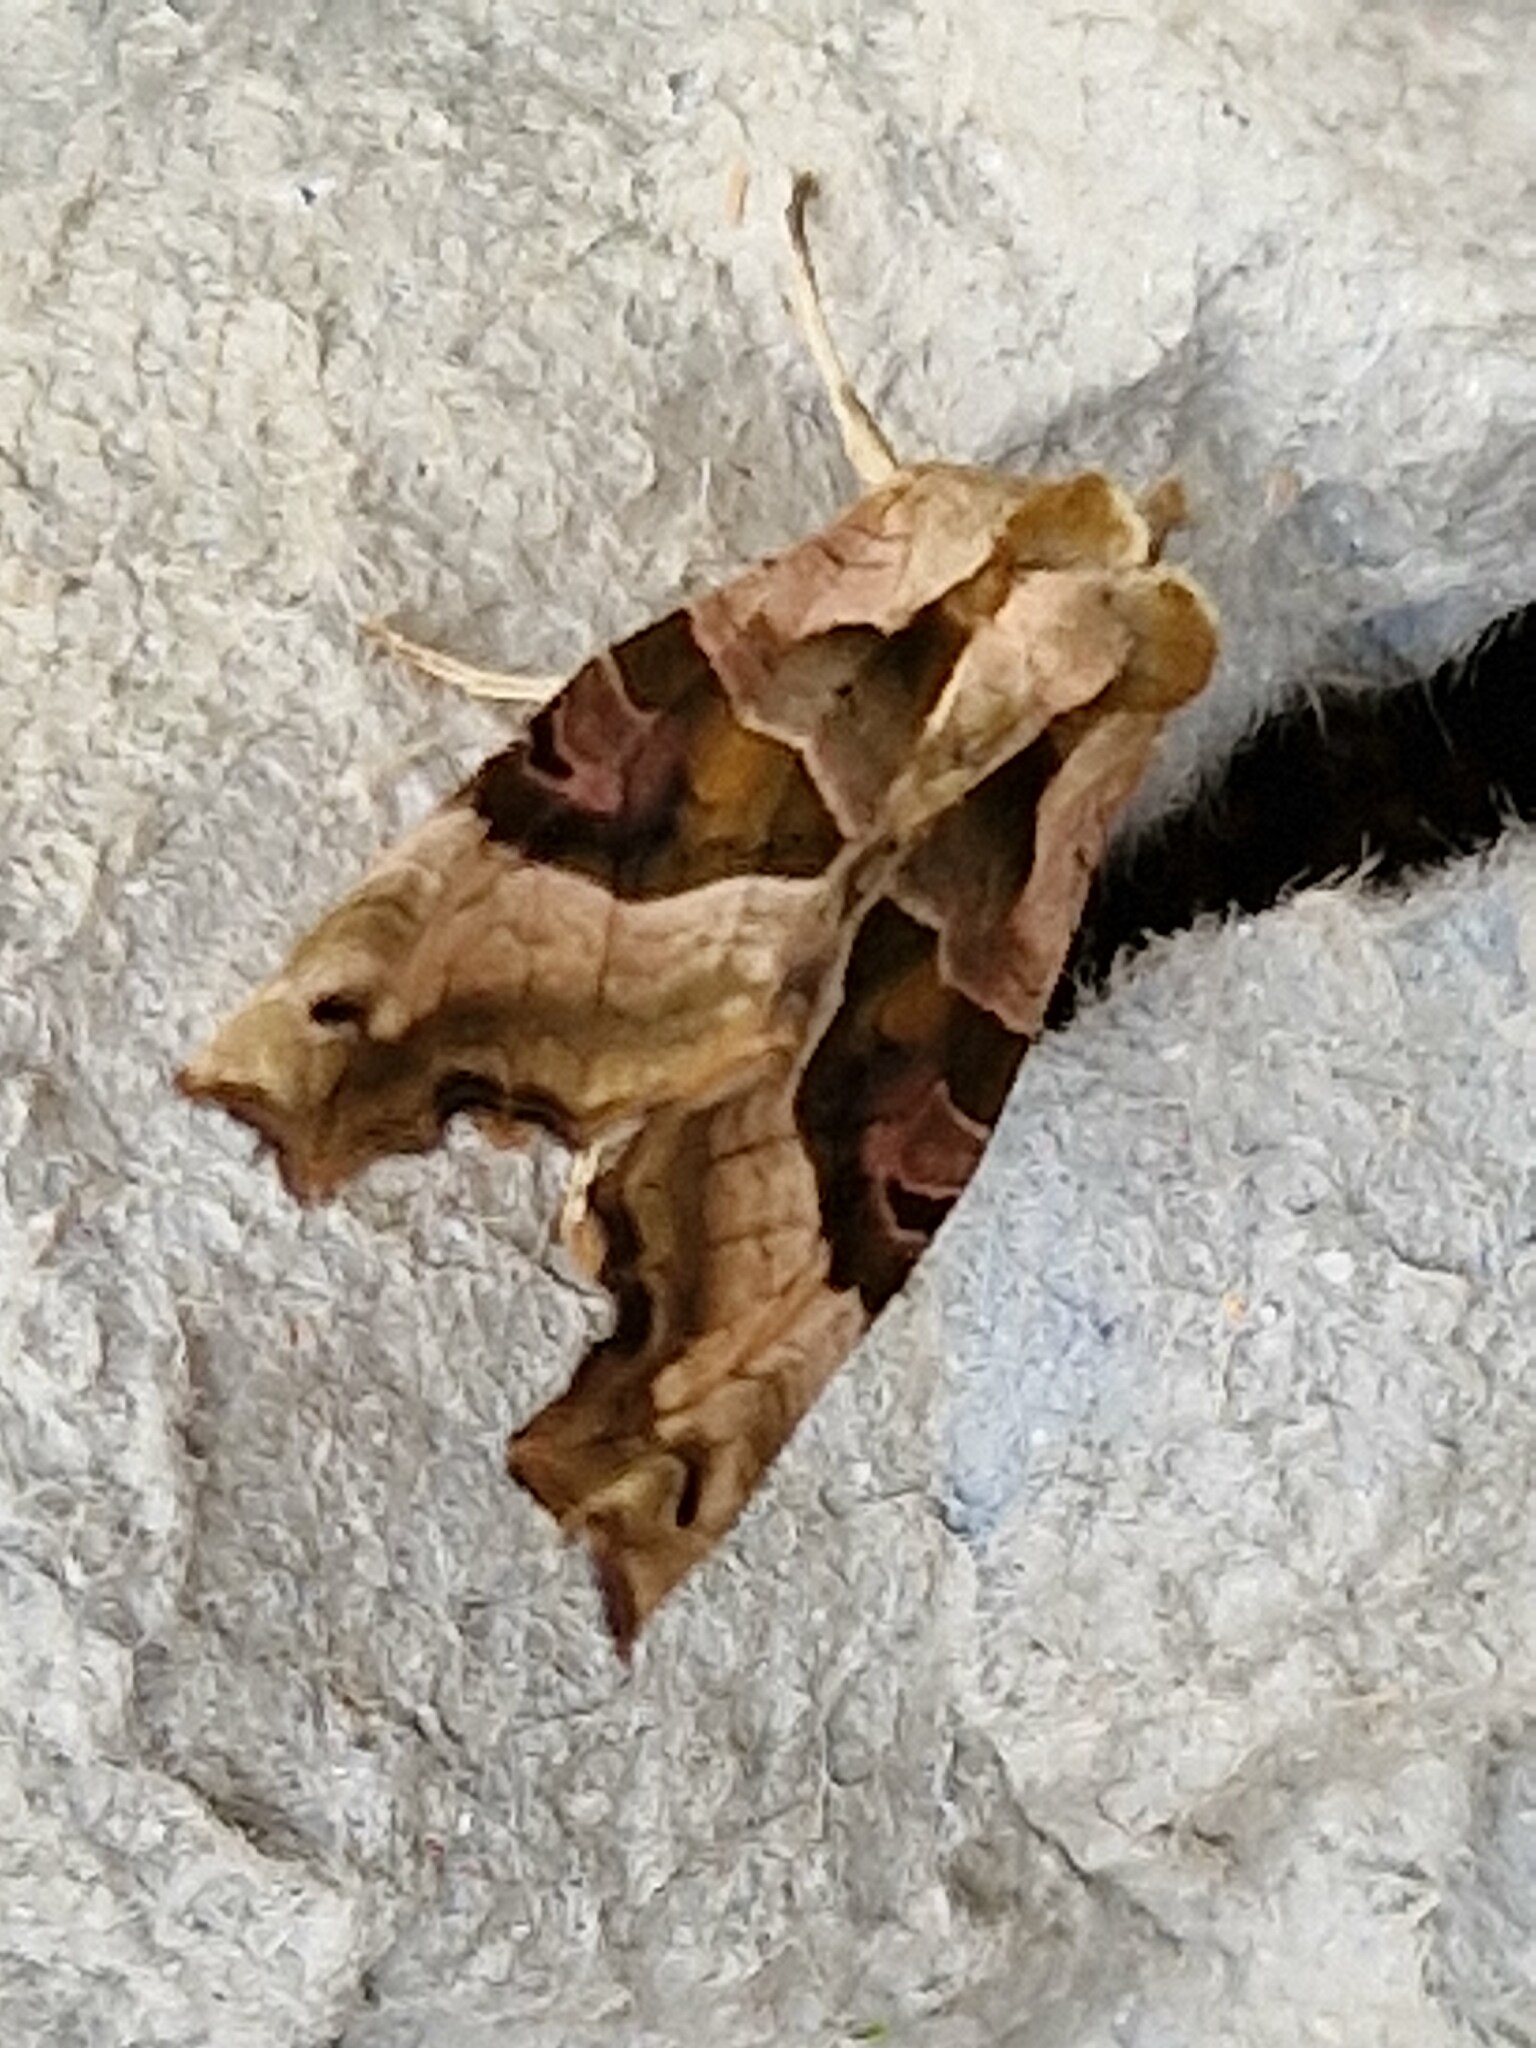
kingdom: Animalia
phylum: Arthropoda
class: Insecta
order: Lepidoptera
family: Noctuidae
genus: Phlogophora
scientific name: Phlogophora meticulosa
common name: Angle shades
